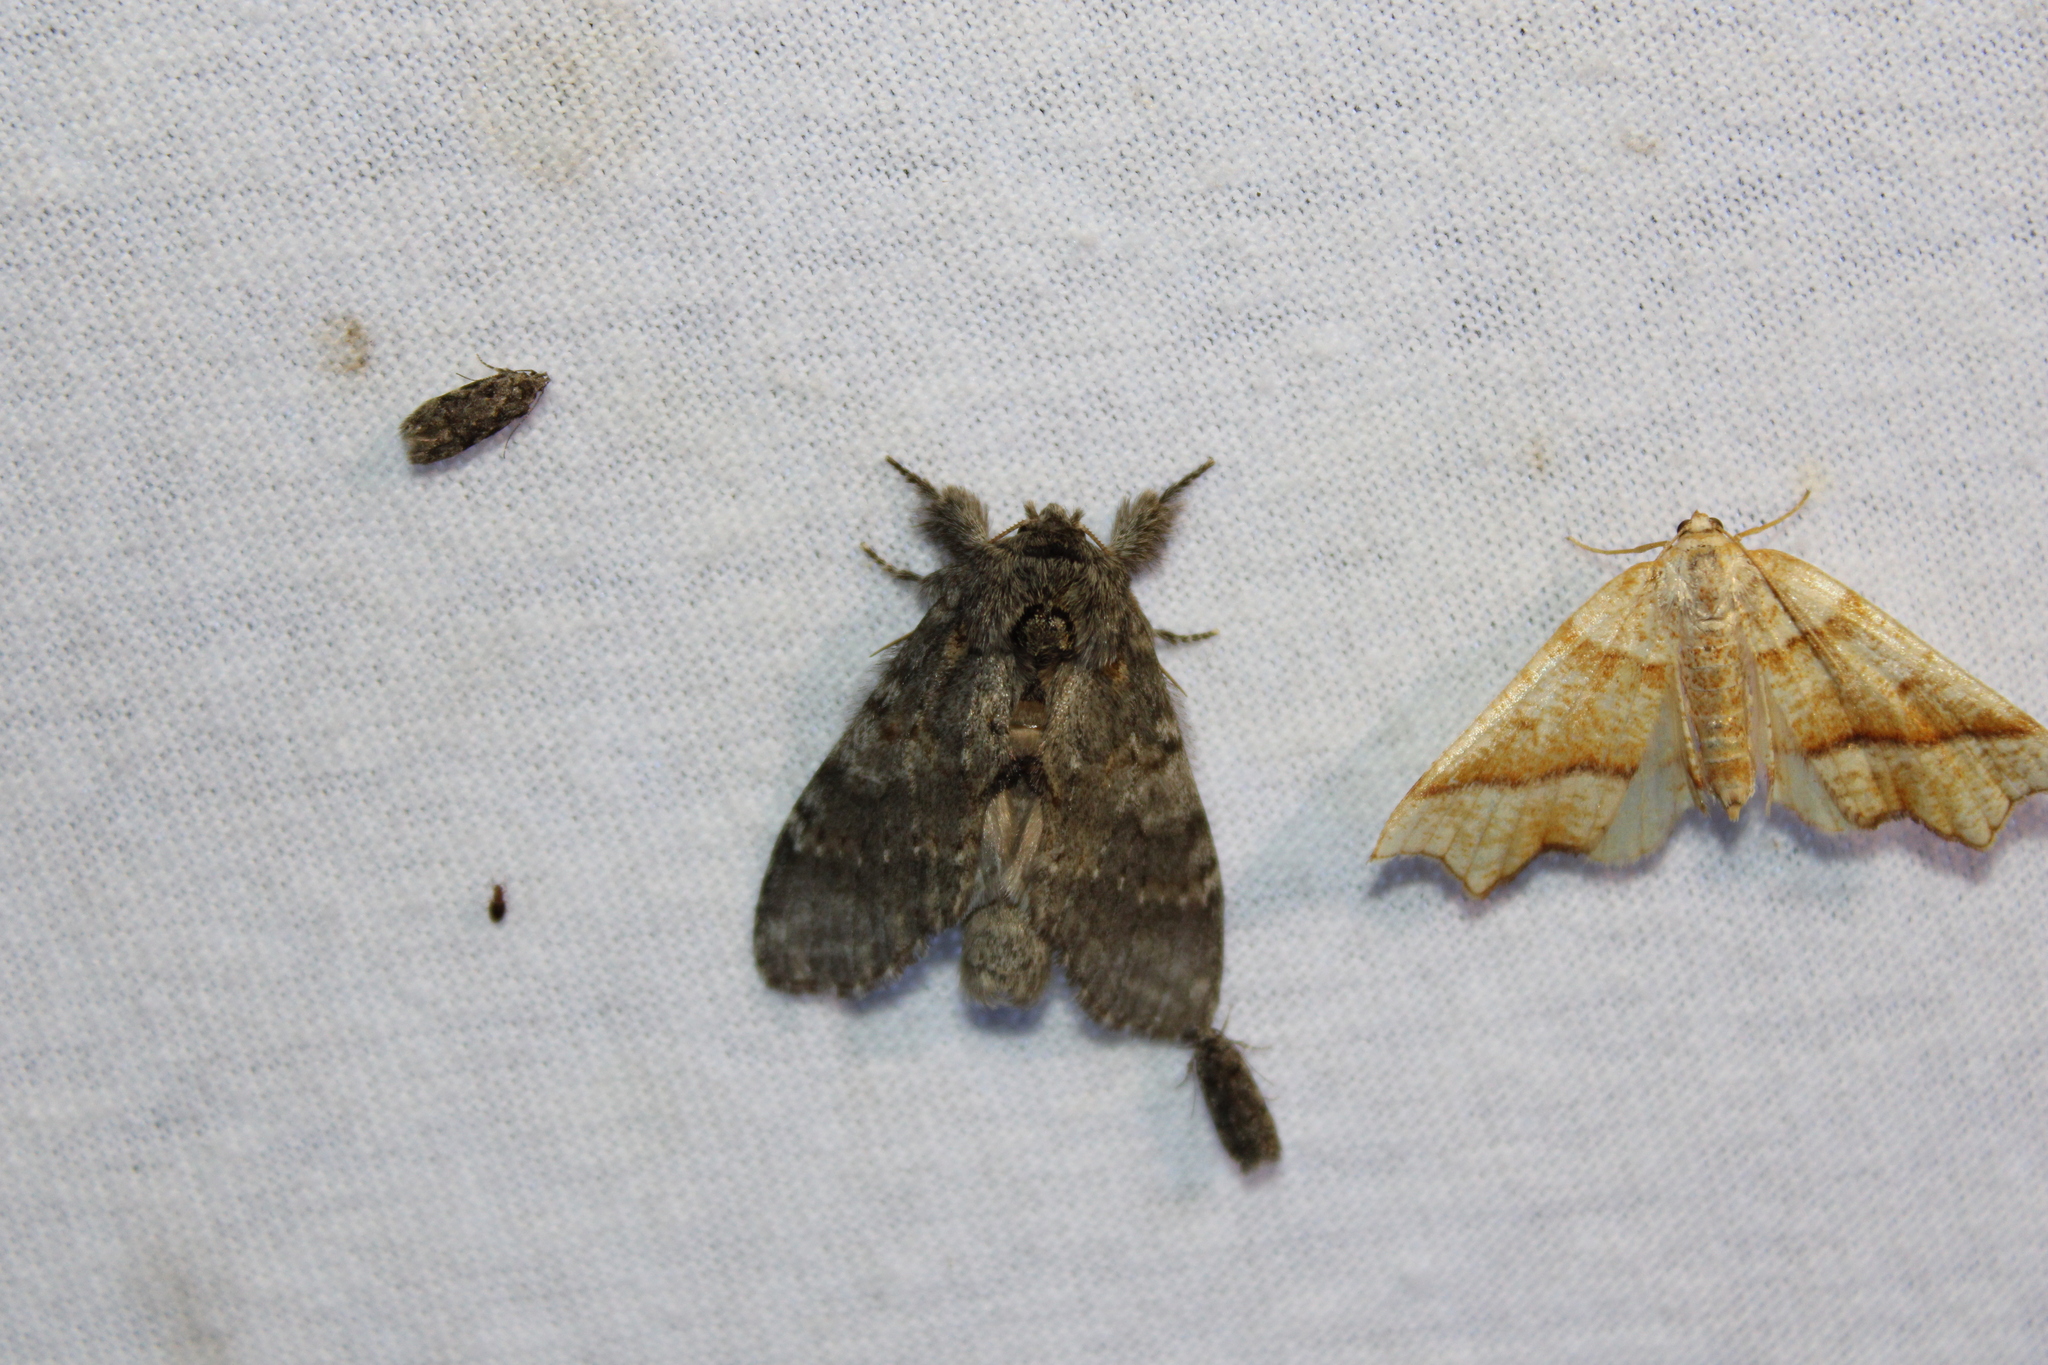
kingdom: Animalia
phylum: Arthropoda
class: Insecta
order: Lepidoptera
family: Notodontidae
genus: Peridea
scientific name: Peridea angulosa
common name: Angulose prominent
